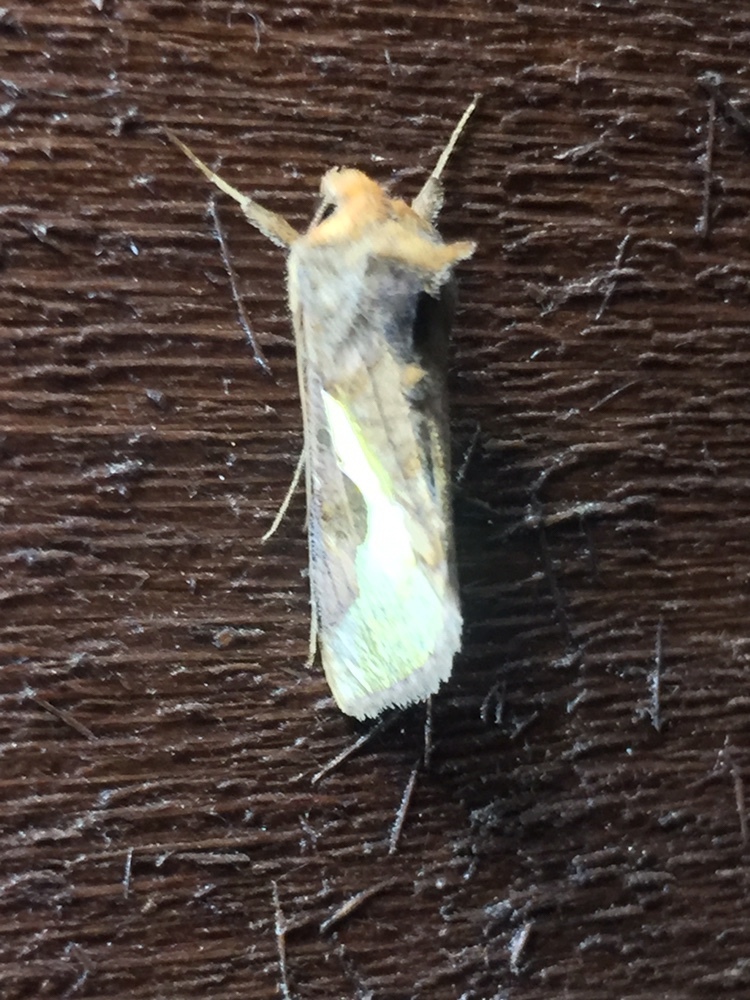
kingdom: Animalia
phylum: Arthropoda
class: Insecta
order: Lepidoptera
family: Noctuidae
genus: Thysanoplusia
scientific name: Thysanoplusia orichalcea
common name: Slender burnished brass, golden plusia
